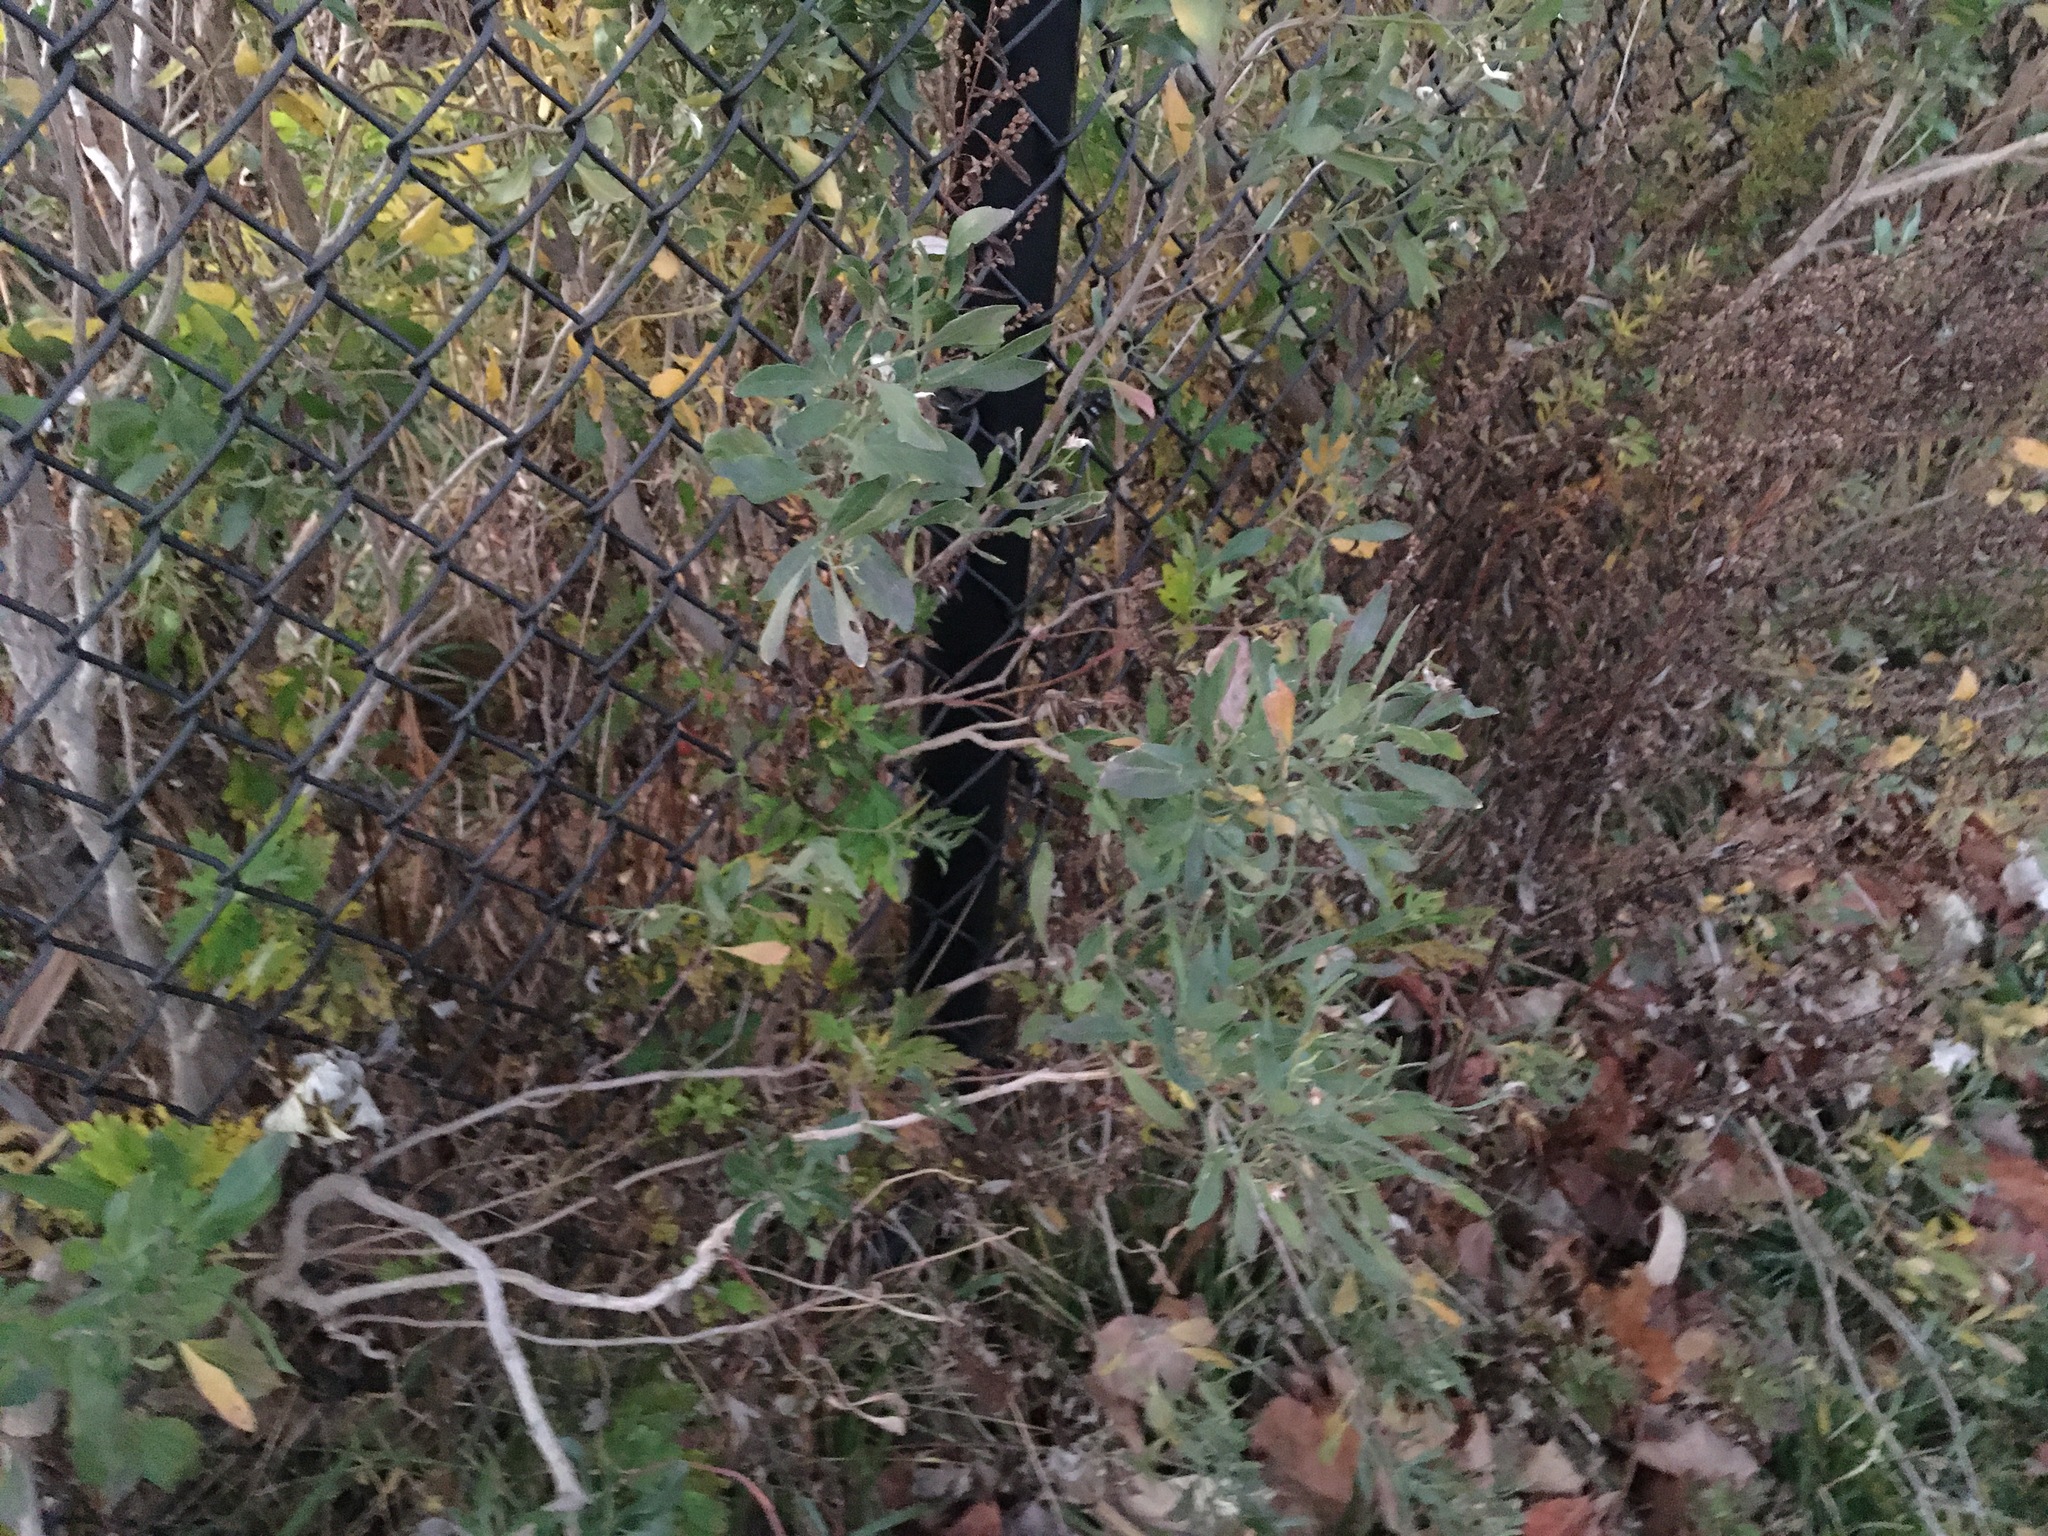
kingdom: Plantae
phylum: Tracheophyta
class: Magnoliopsida
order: Asterales
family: Asteraceae
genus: Baccharis
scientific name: Baccharis halimifolia
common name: Eastern baccharis
